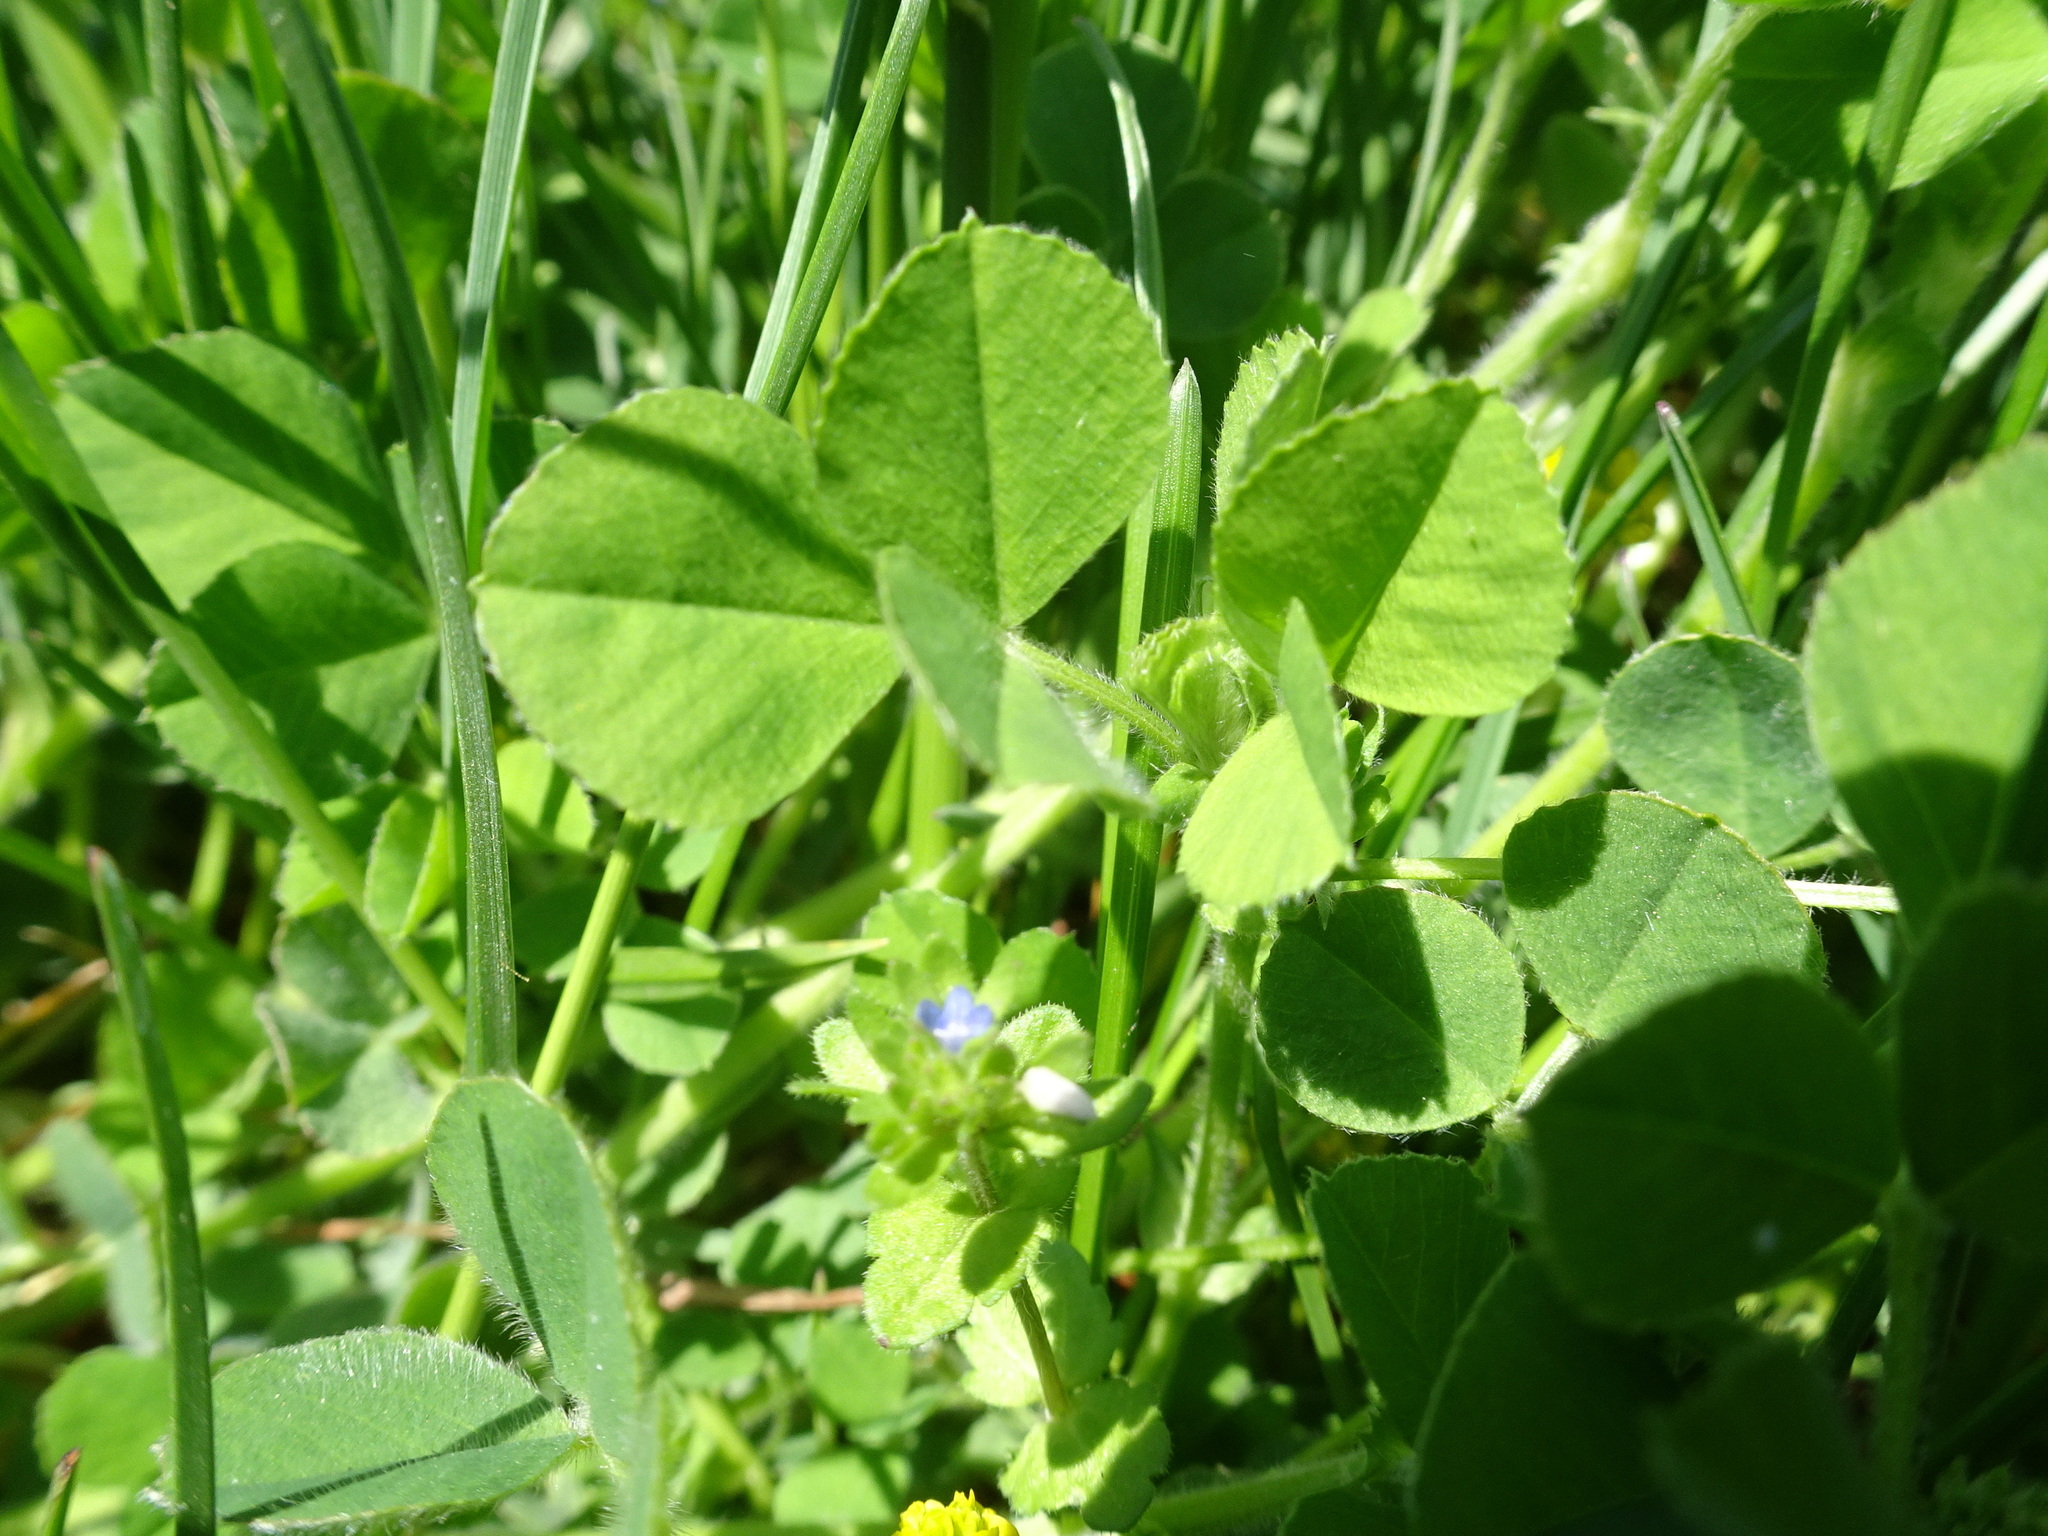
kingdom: Plantae
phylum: Tracheophyta
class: Magnoliopsida
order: Fabales
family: Fabaceae
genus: Medicago
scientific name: Medicago lupulina
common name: Black medick
